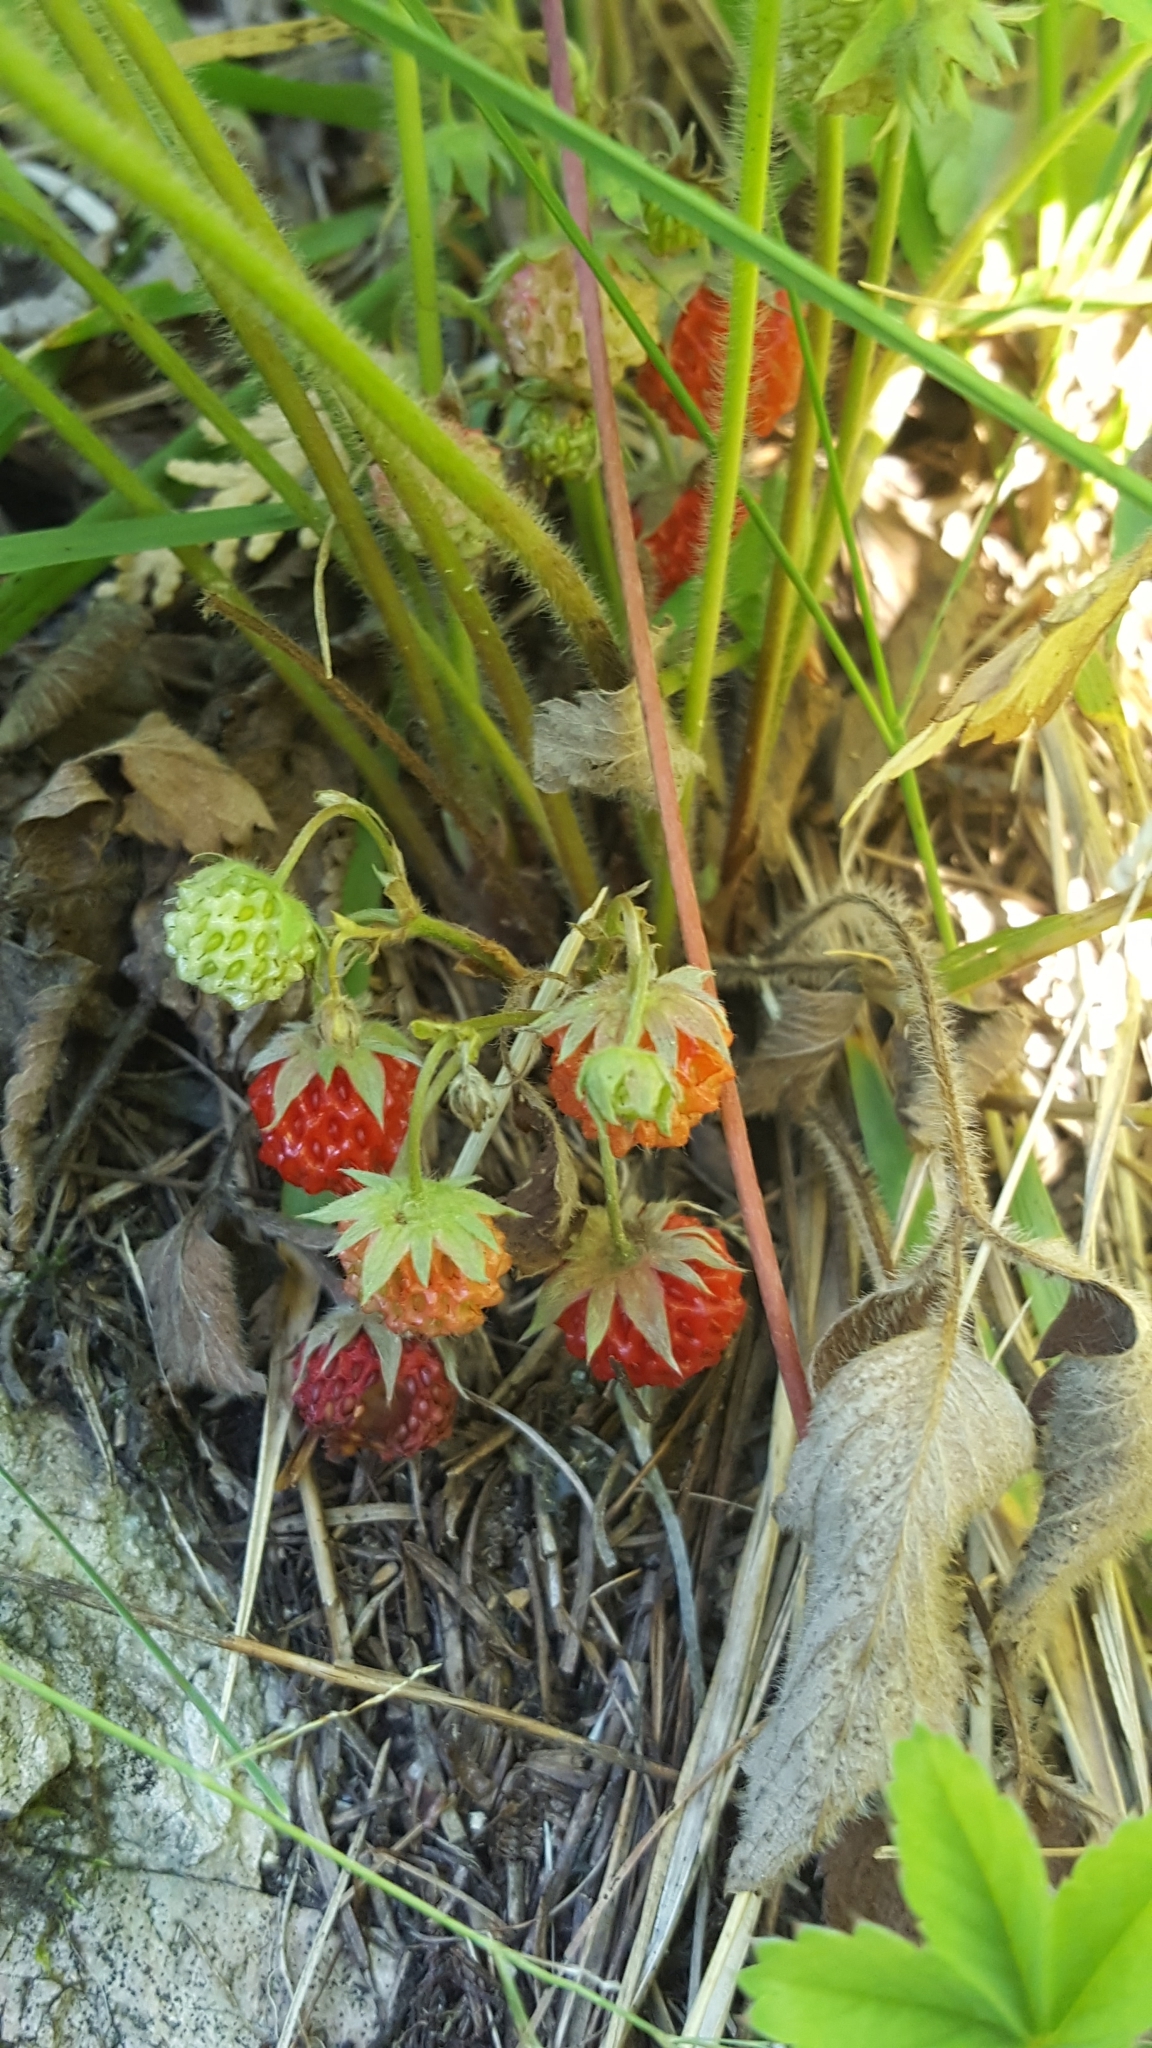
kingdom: Plantae
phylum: Tracheophyta
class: Magnoliopsida
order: Rosales
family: Rosaceae
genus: Fragaria
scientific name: Fragaria virginiana
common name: Thickleaved wild strawberry
